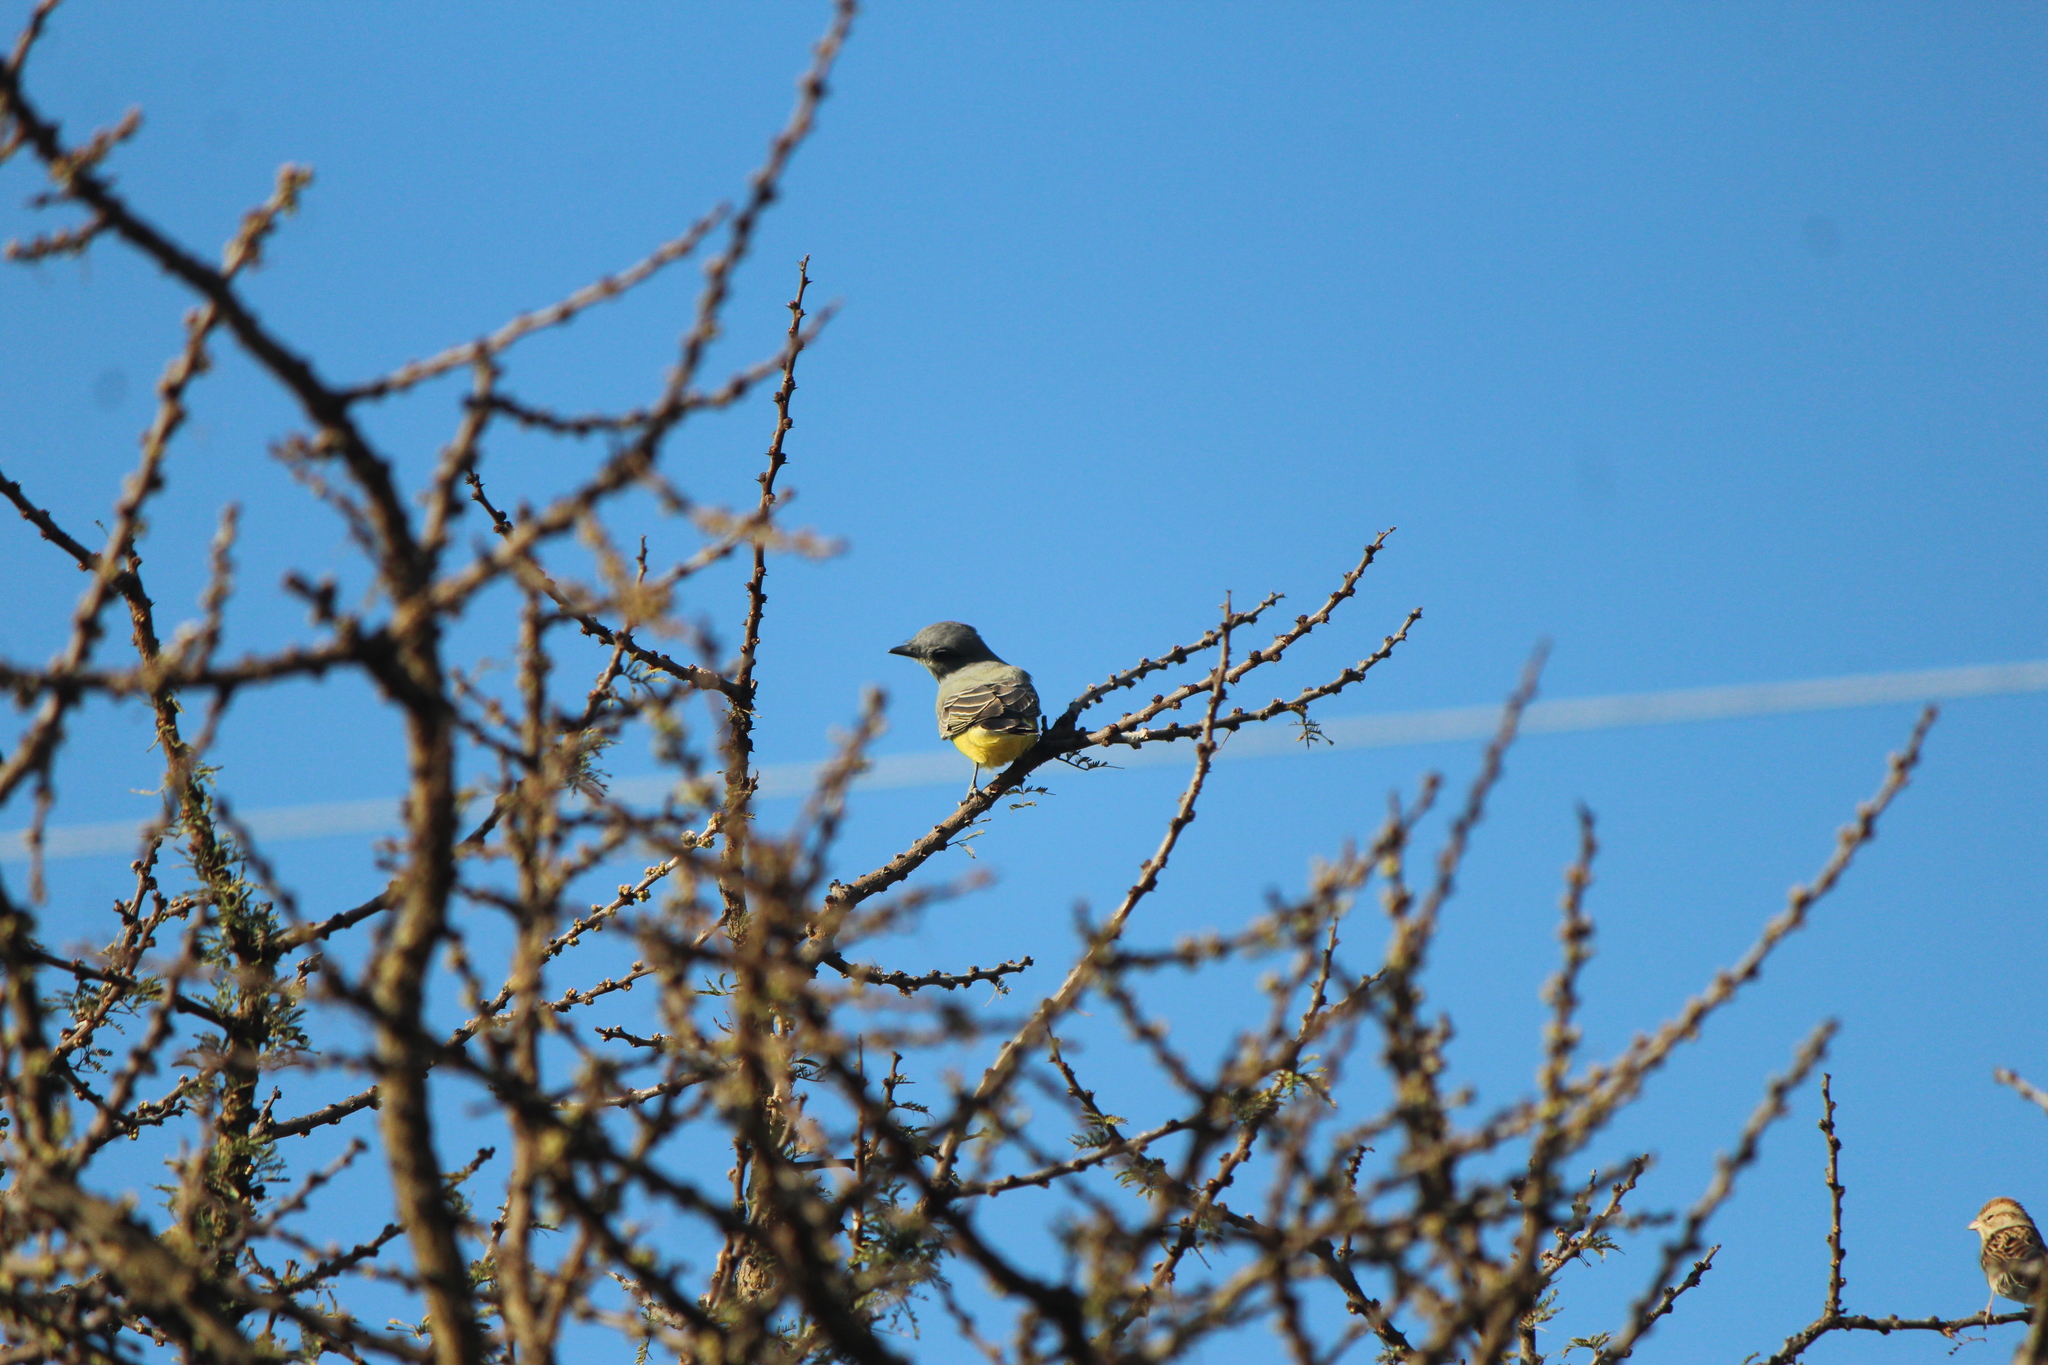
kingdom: Animalia
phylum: Chordata
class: Aves
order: Passeriformes
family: Tyrannidae
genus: Tyrannus
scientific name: Tyrannus vociferans
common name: Cassin's kingbird
